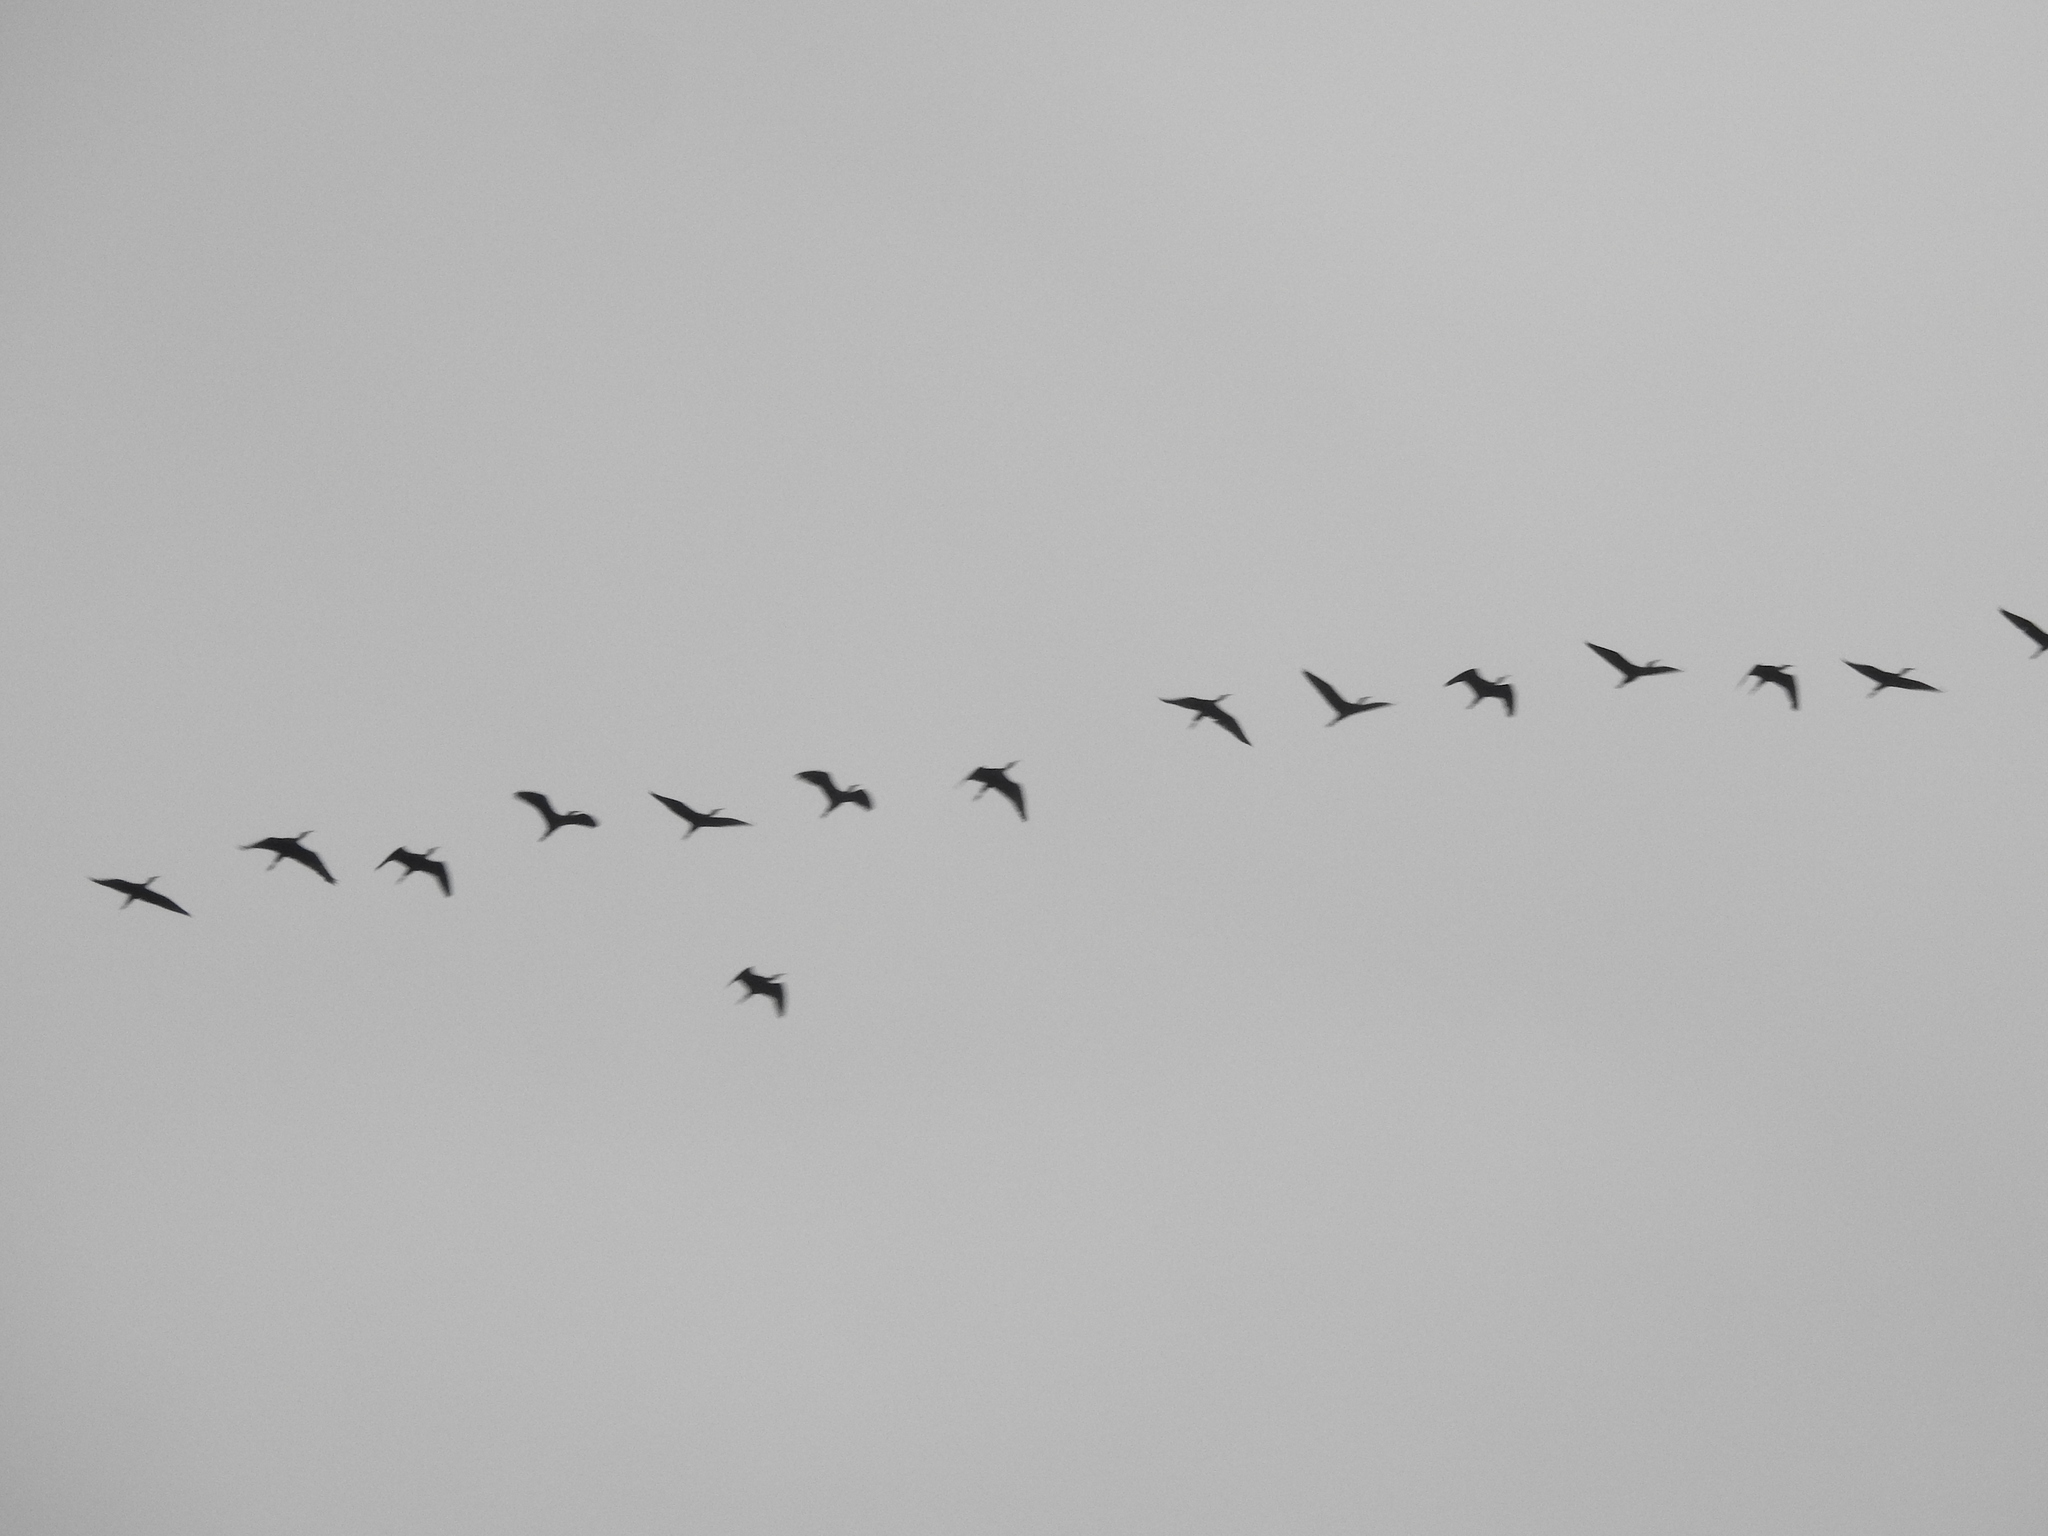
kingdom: Animalia
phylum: Chordata
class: Aves
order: Pelecaniformes
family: Threskiornithidae
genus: Plegadis
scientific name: Plegadis falcinellus
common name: Glossy ibis
